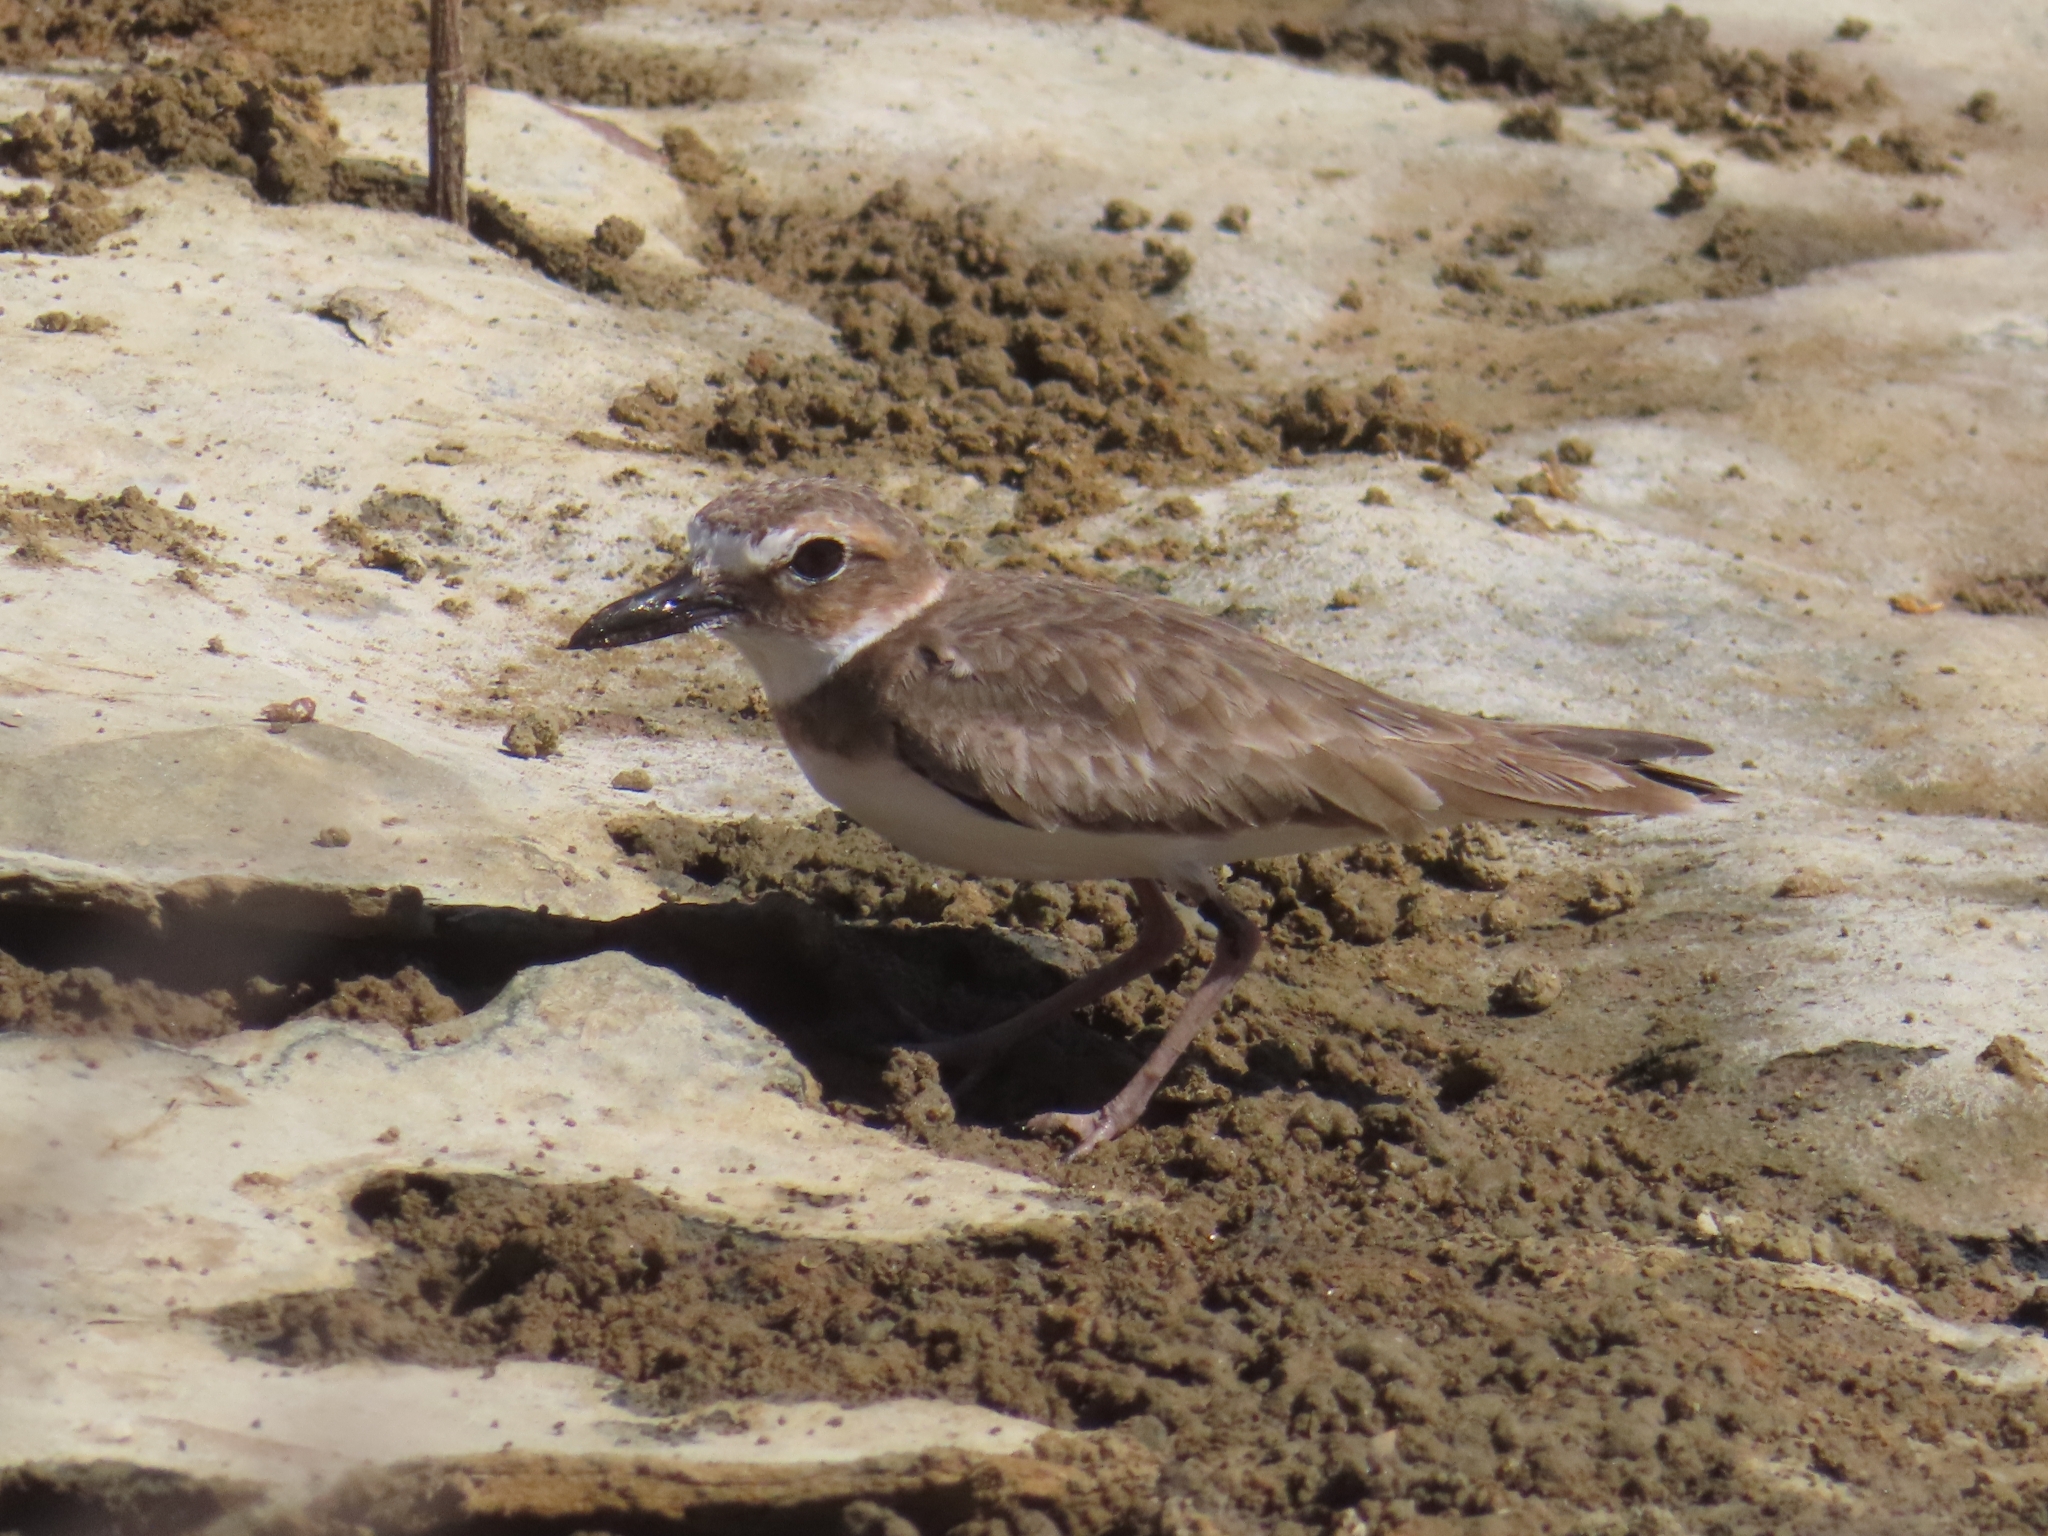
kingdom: Animalia
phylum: Chordata
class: Aves
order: Charadriiformes
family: Charadriidae
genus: Anarhynchus
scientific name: Anarhynchus
